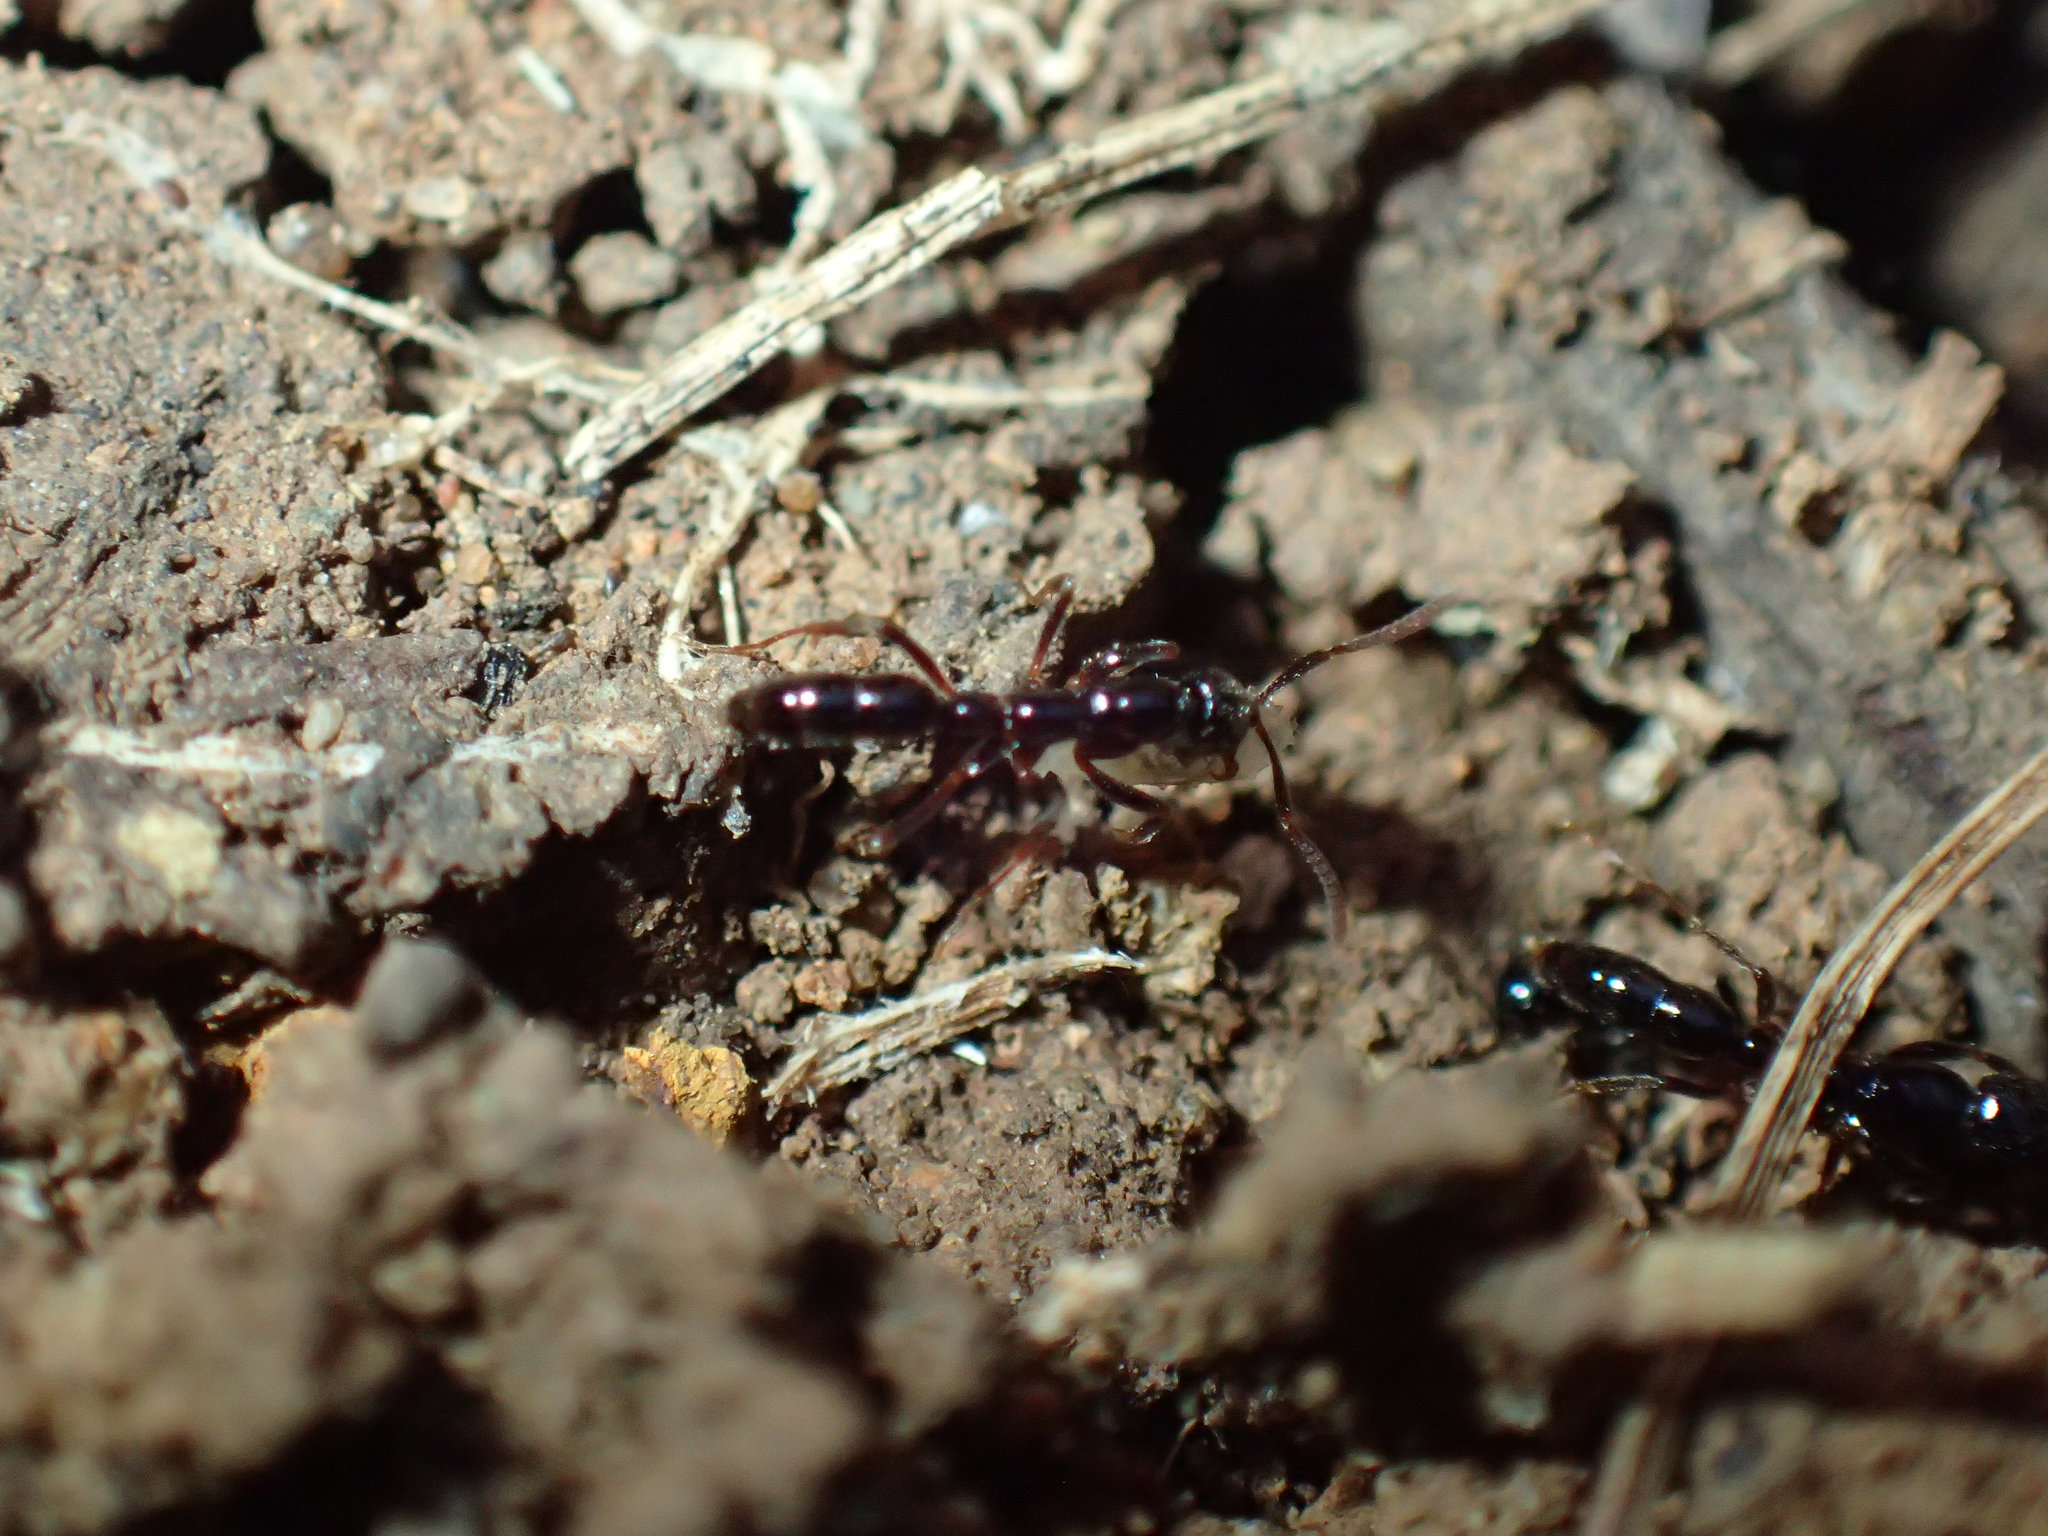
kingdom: Animalia
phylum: Arthropoda
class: Insecta
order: Hymenoptera
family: Formicidae
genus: Leptogenys
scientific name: Leptogenys intermedia
